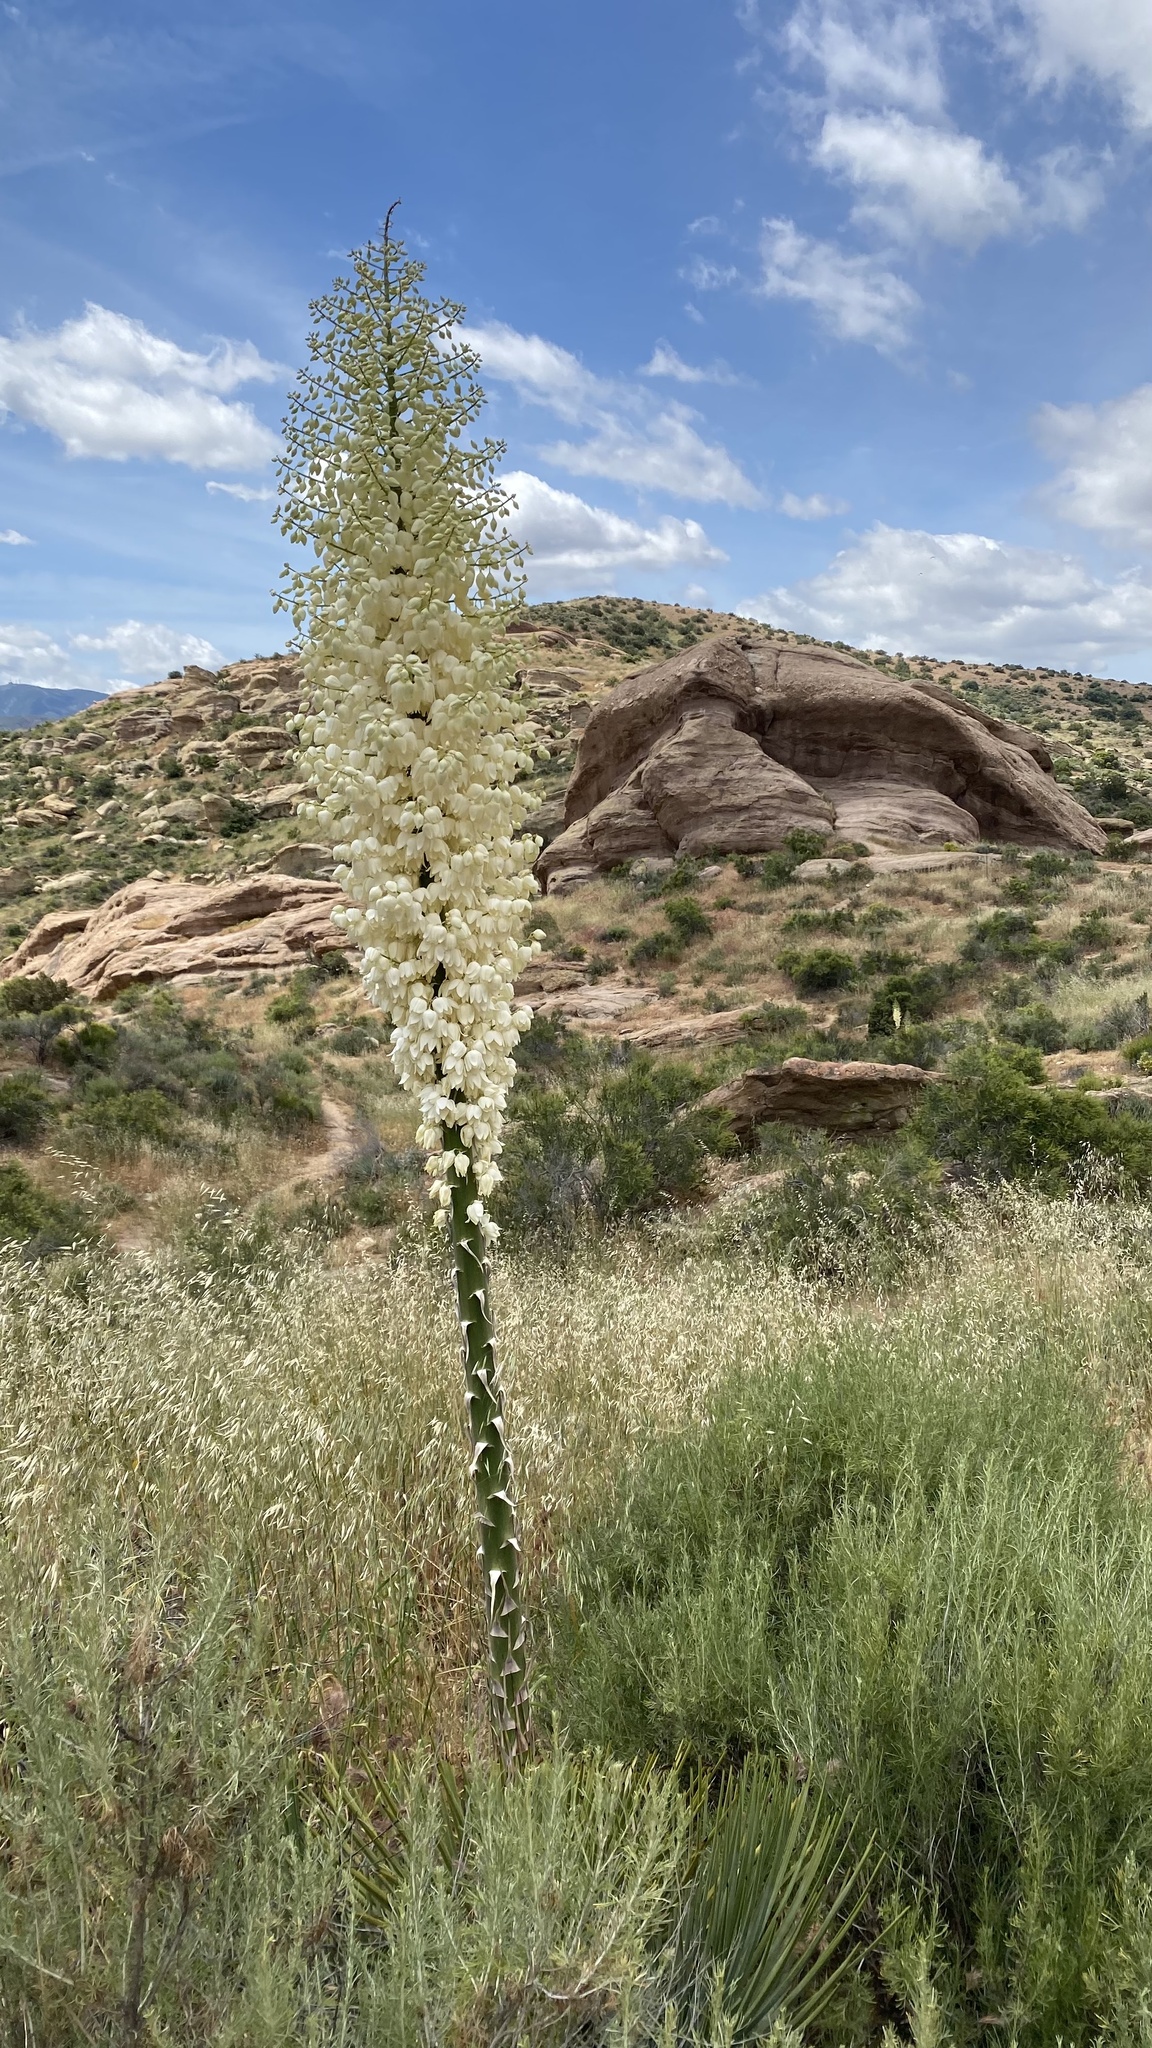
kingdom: Plantae
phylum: Tracheophyta
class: Liliopsida
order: Asparagales
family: Asparagaceae
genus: Hesperoyucca
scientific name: Hesperoyucca whipplei
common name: Our lord's-candle
